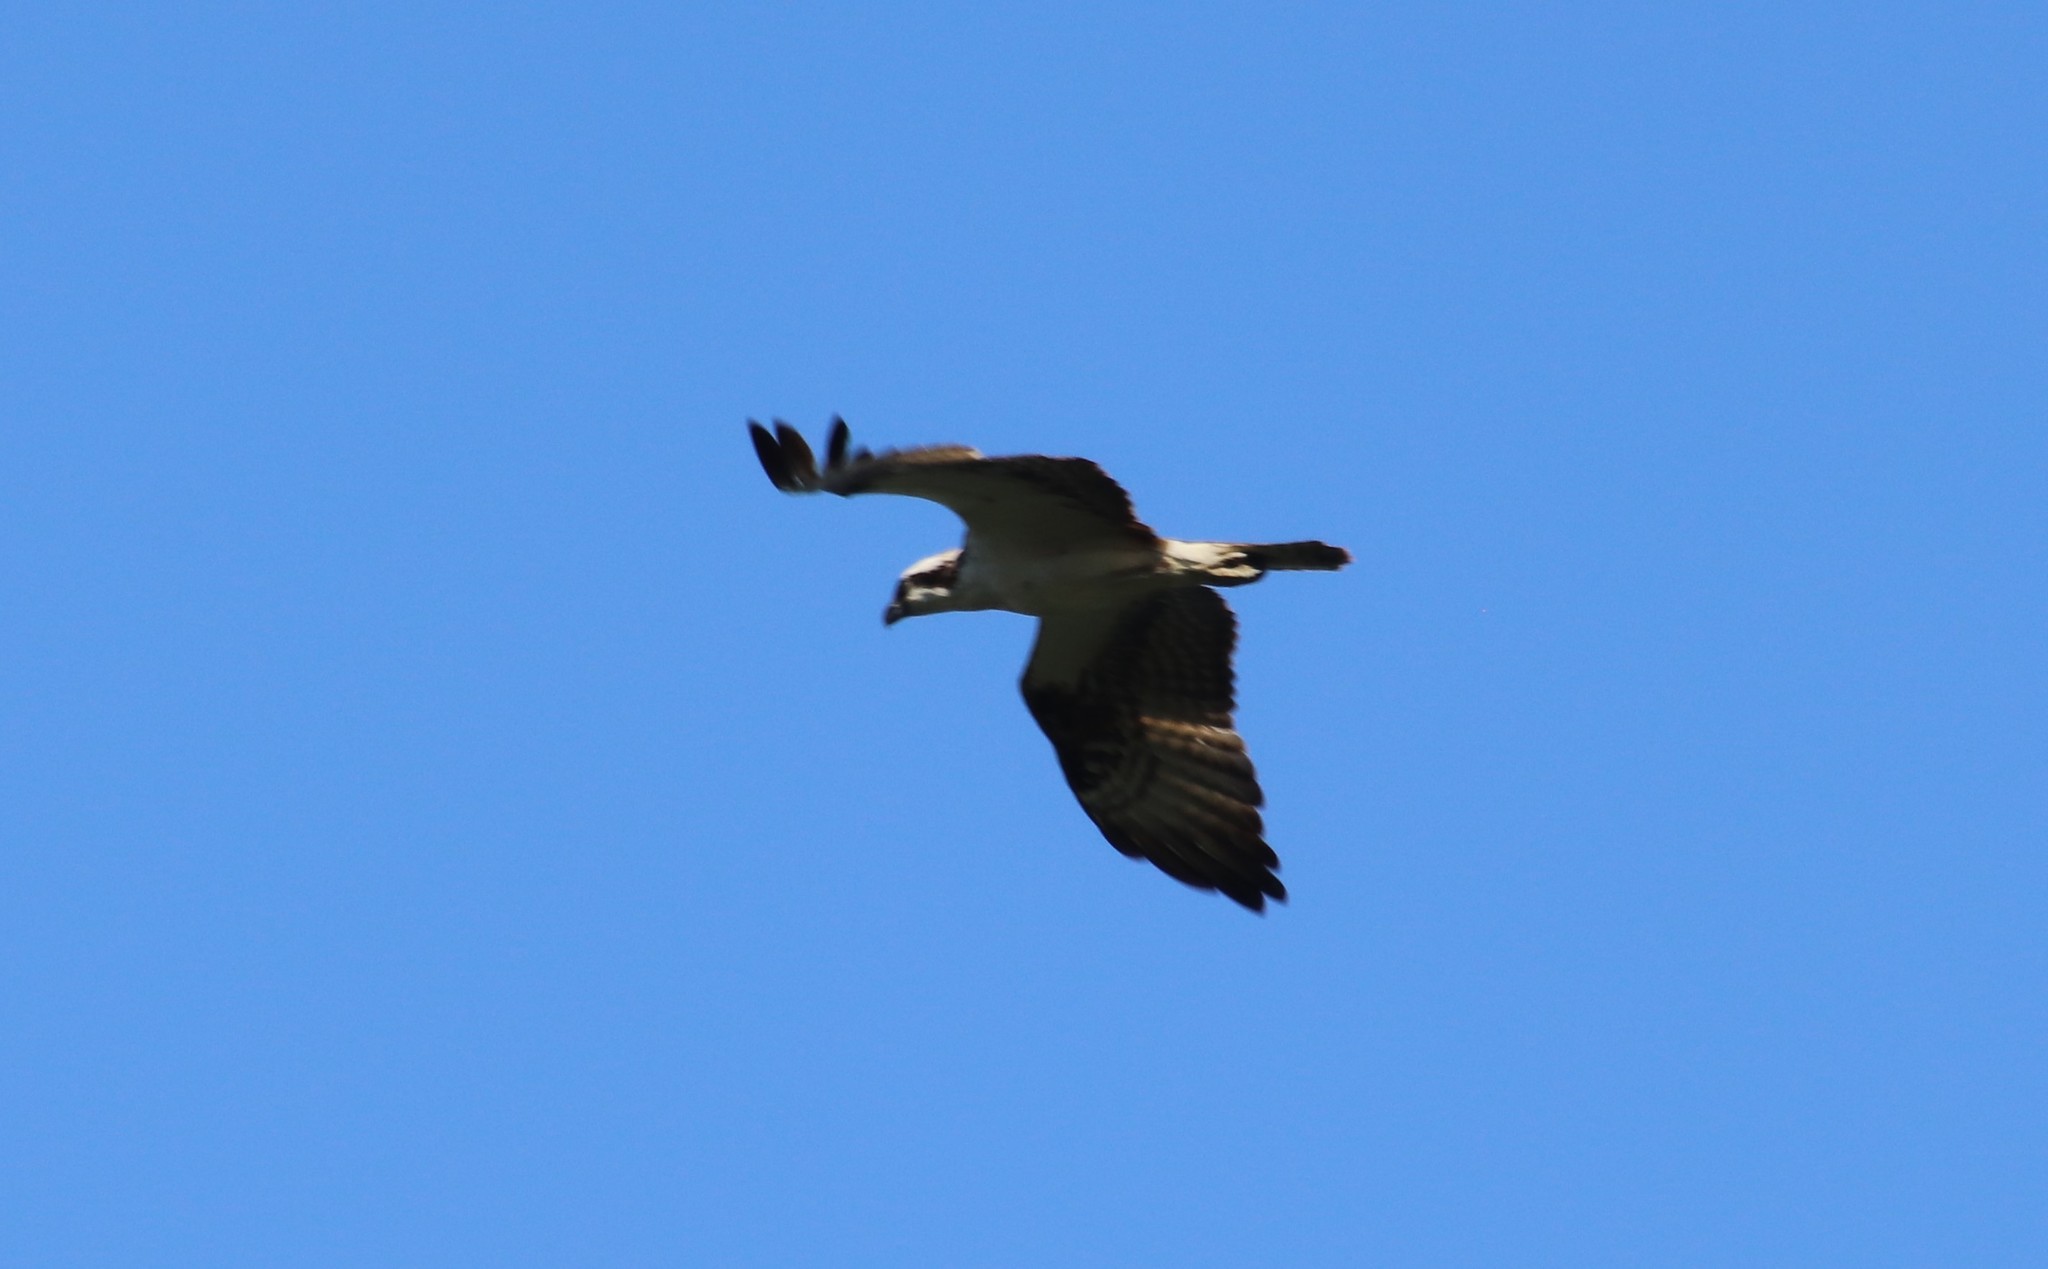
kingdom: Animalia
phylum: Chordata
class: Aves
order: Accipitriformes
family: Pandionidae
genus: Pandion
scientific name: Pandion haliaetus
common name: Osprey
